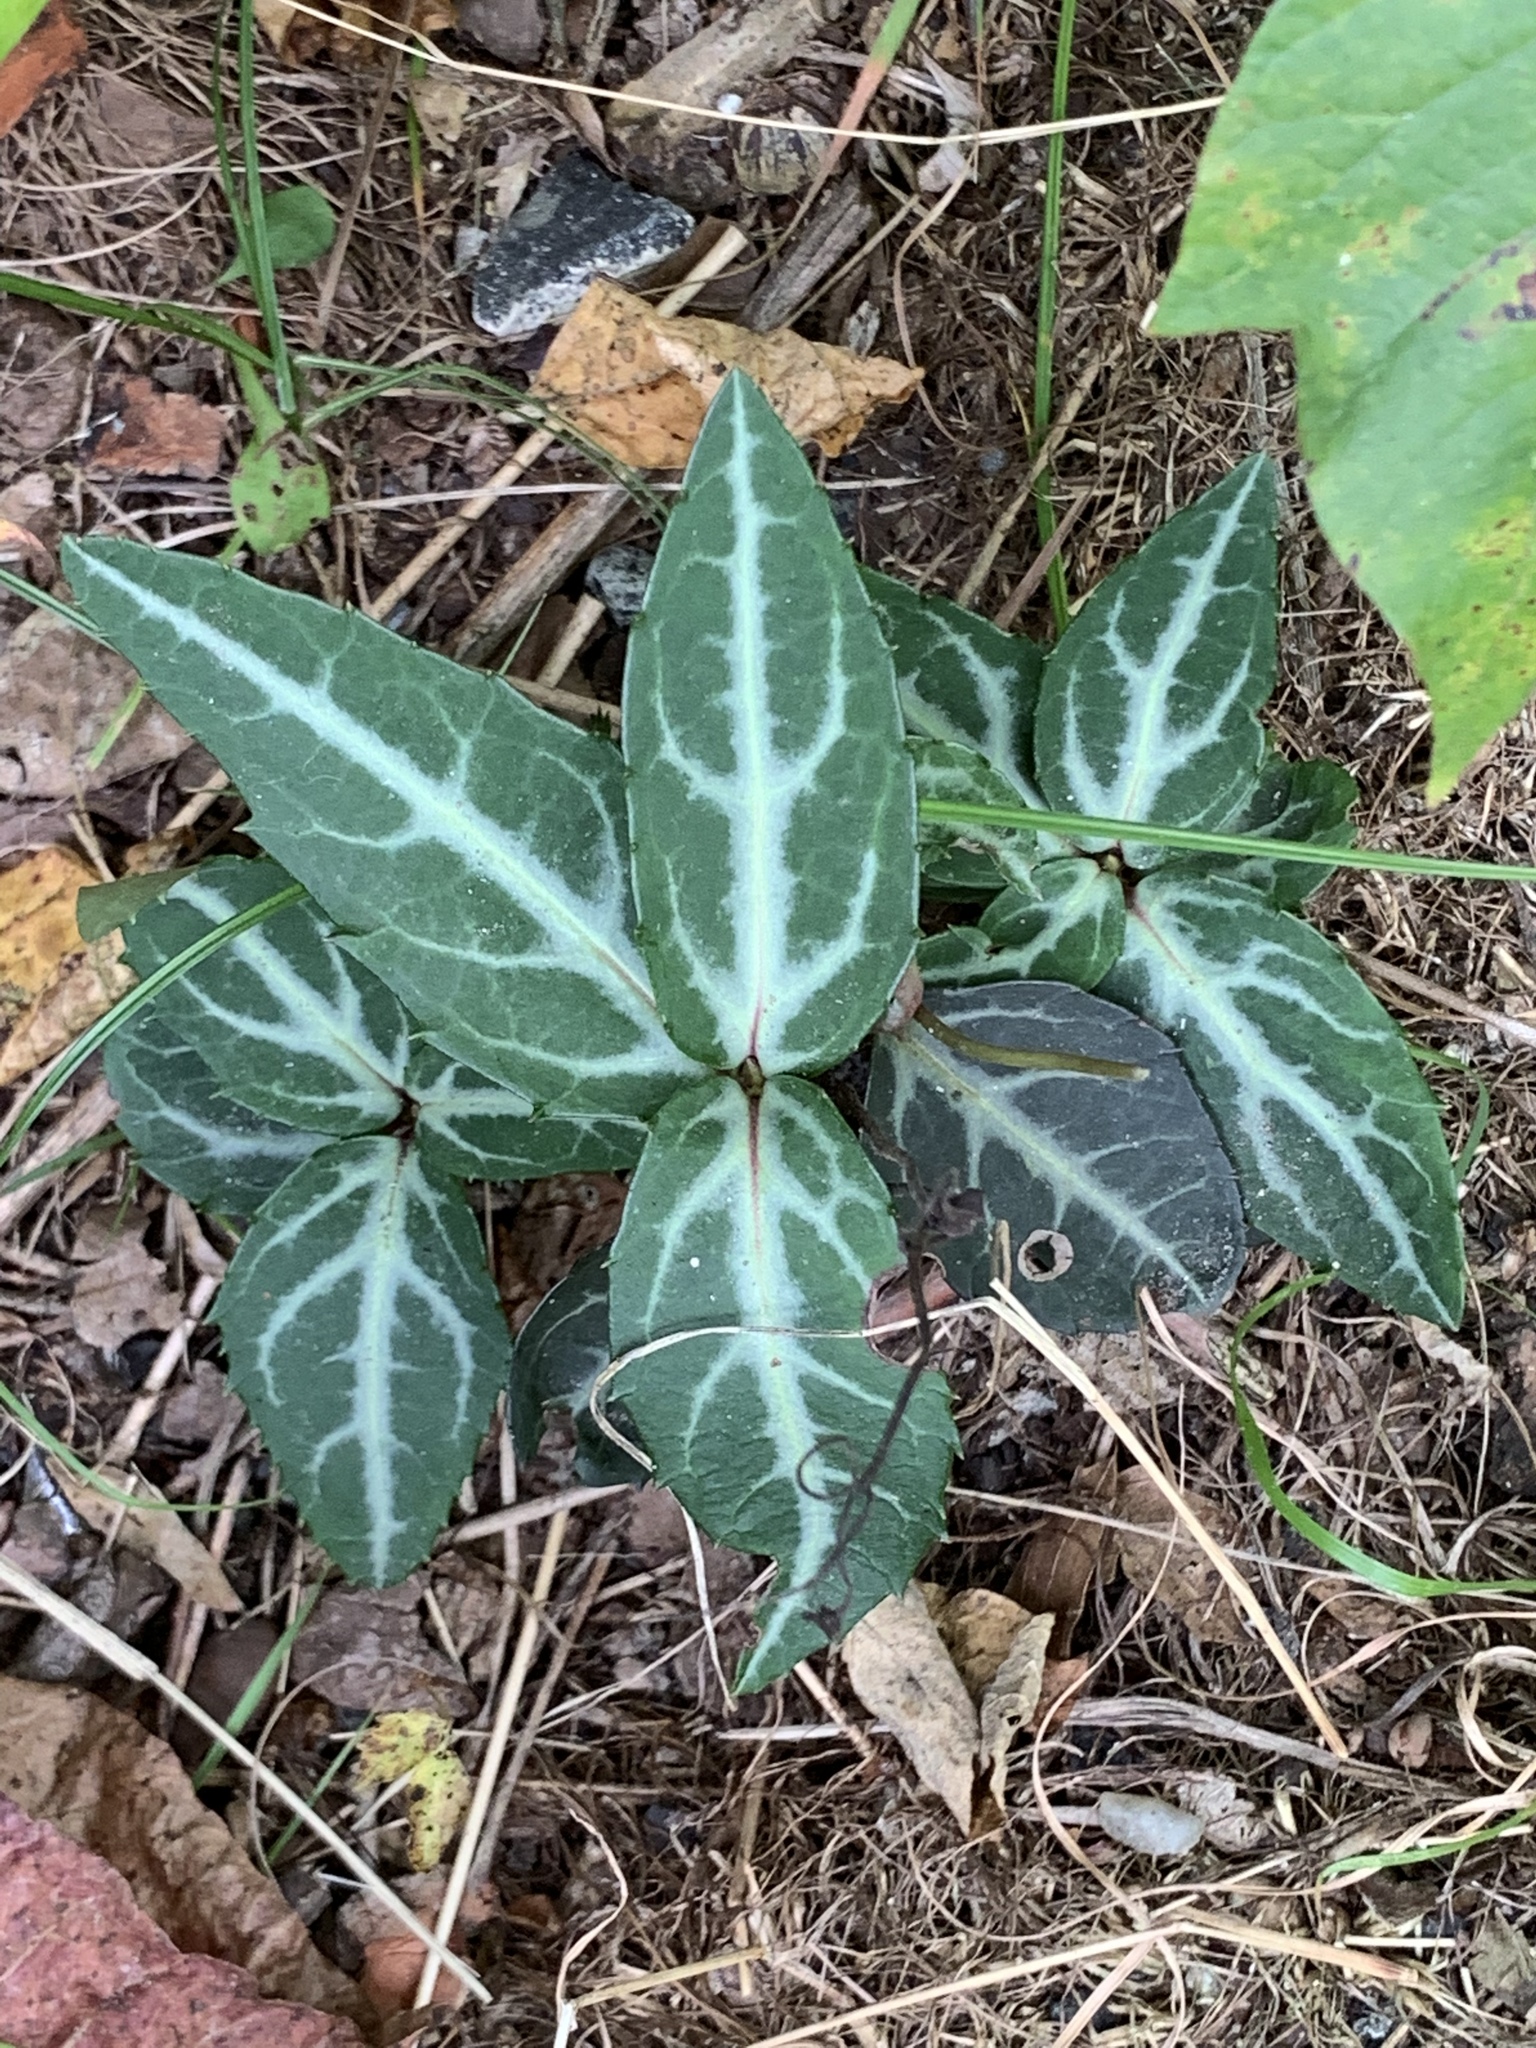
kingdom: Plantae
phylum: Tracheophyta
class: Magnoliopsida
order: Ericales
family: Ericaceae
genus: Chimaphila
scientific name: Chimaphila maculata
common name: Spotted pipsissewa
